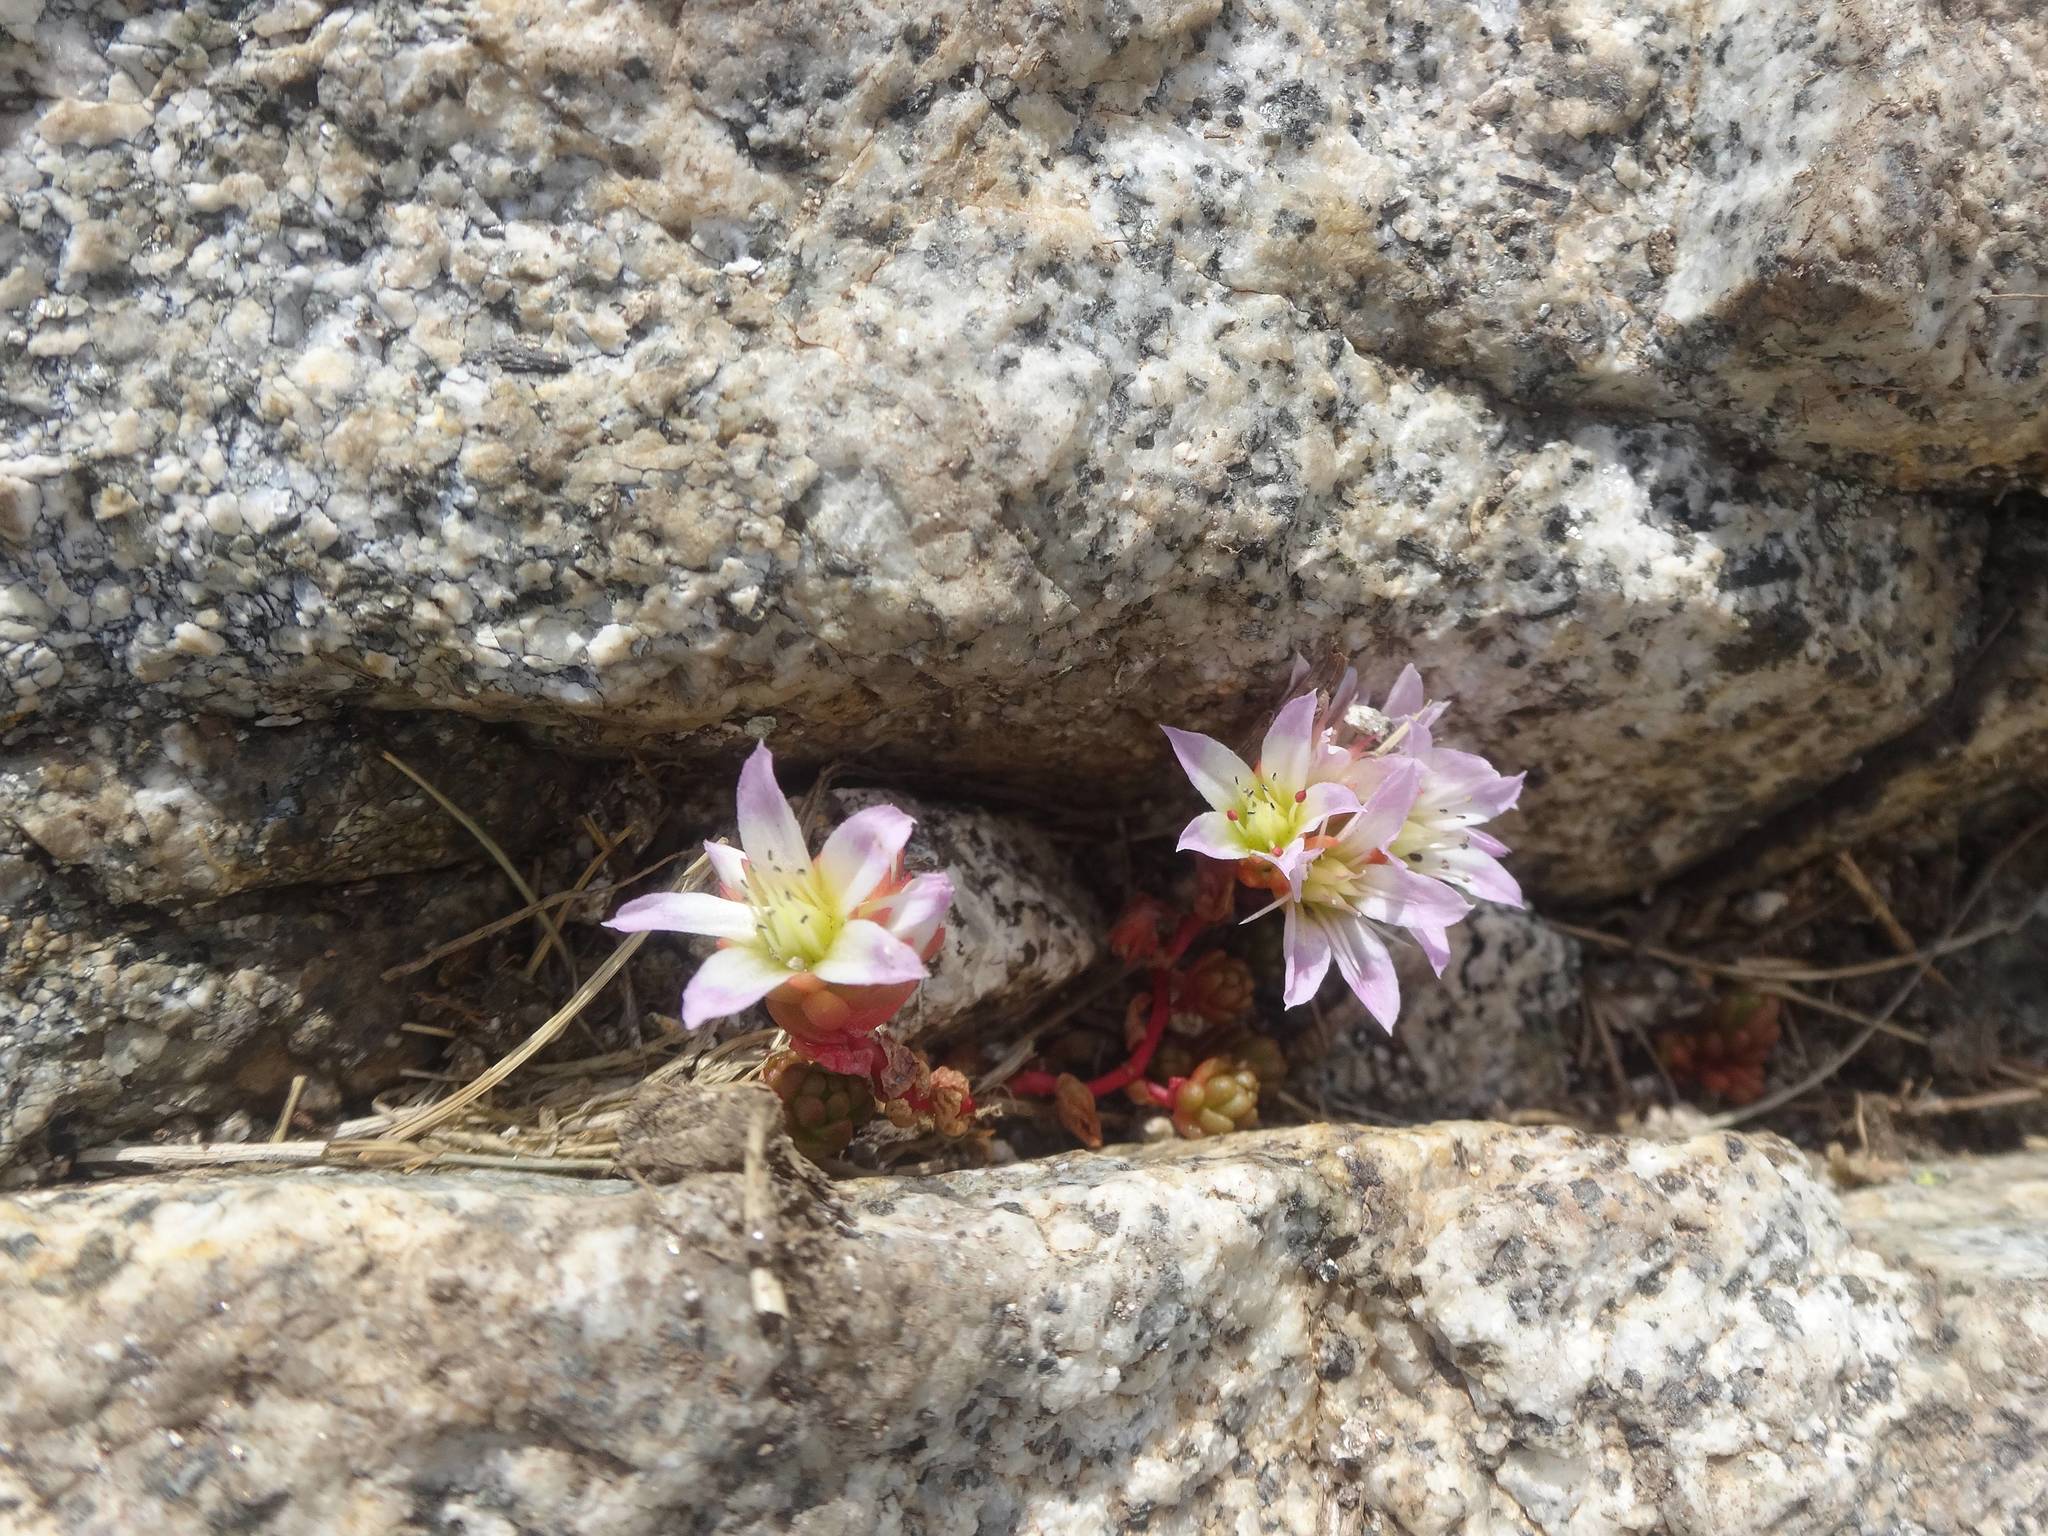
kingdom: Plantae
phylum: Tracheophyta
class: Magnoliopsida
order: Saxifragales
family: Crassulaceae
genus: Sedum
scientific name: Sedum candollei
